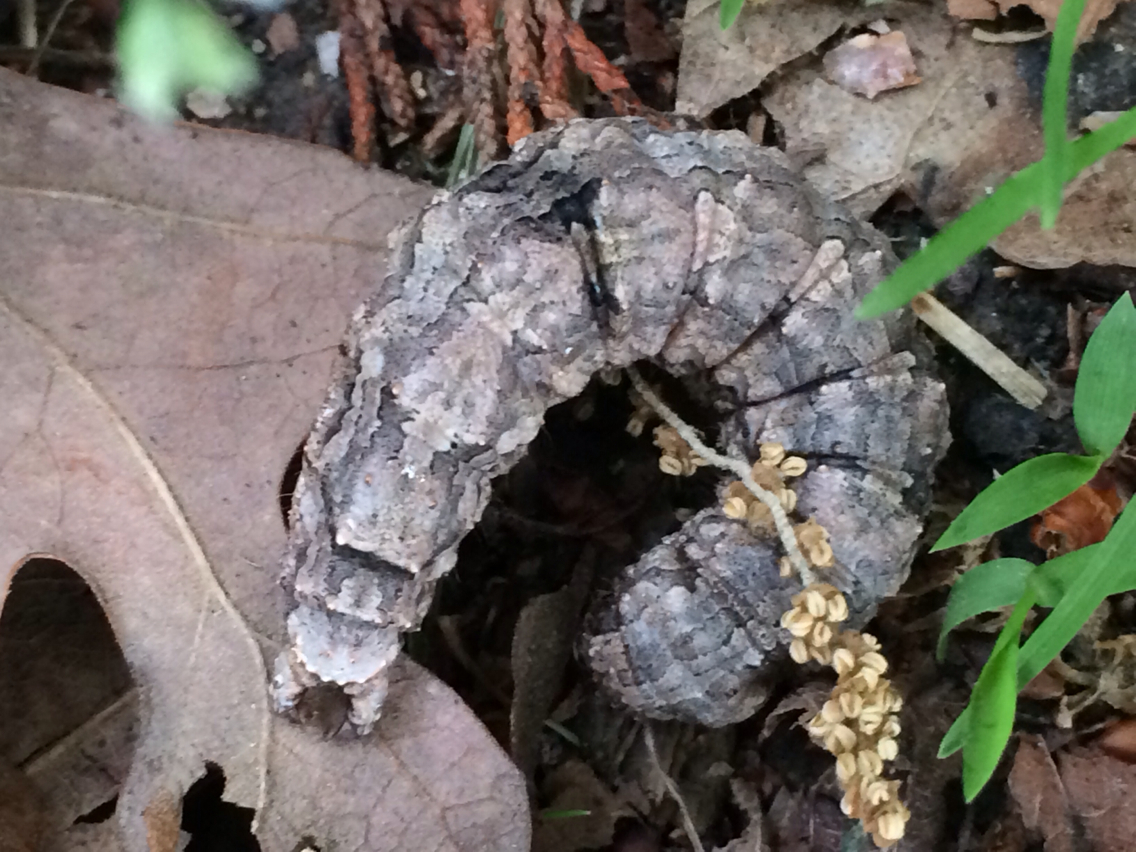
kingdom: Animalia
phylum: Arthropoda
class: Insecta
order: Lepidoptera
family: Erebidae
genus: Catocala
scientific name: Catocala ilia
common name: Ilia underwing
